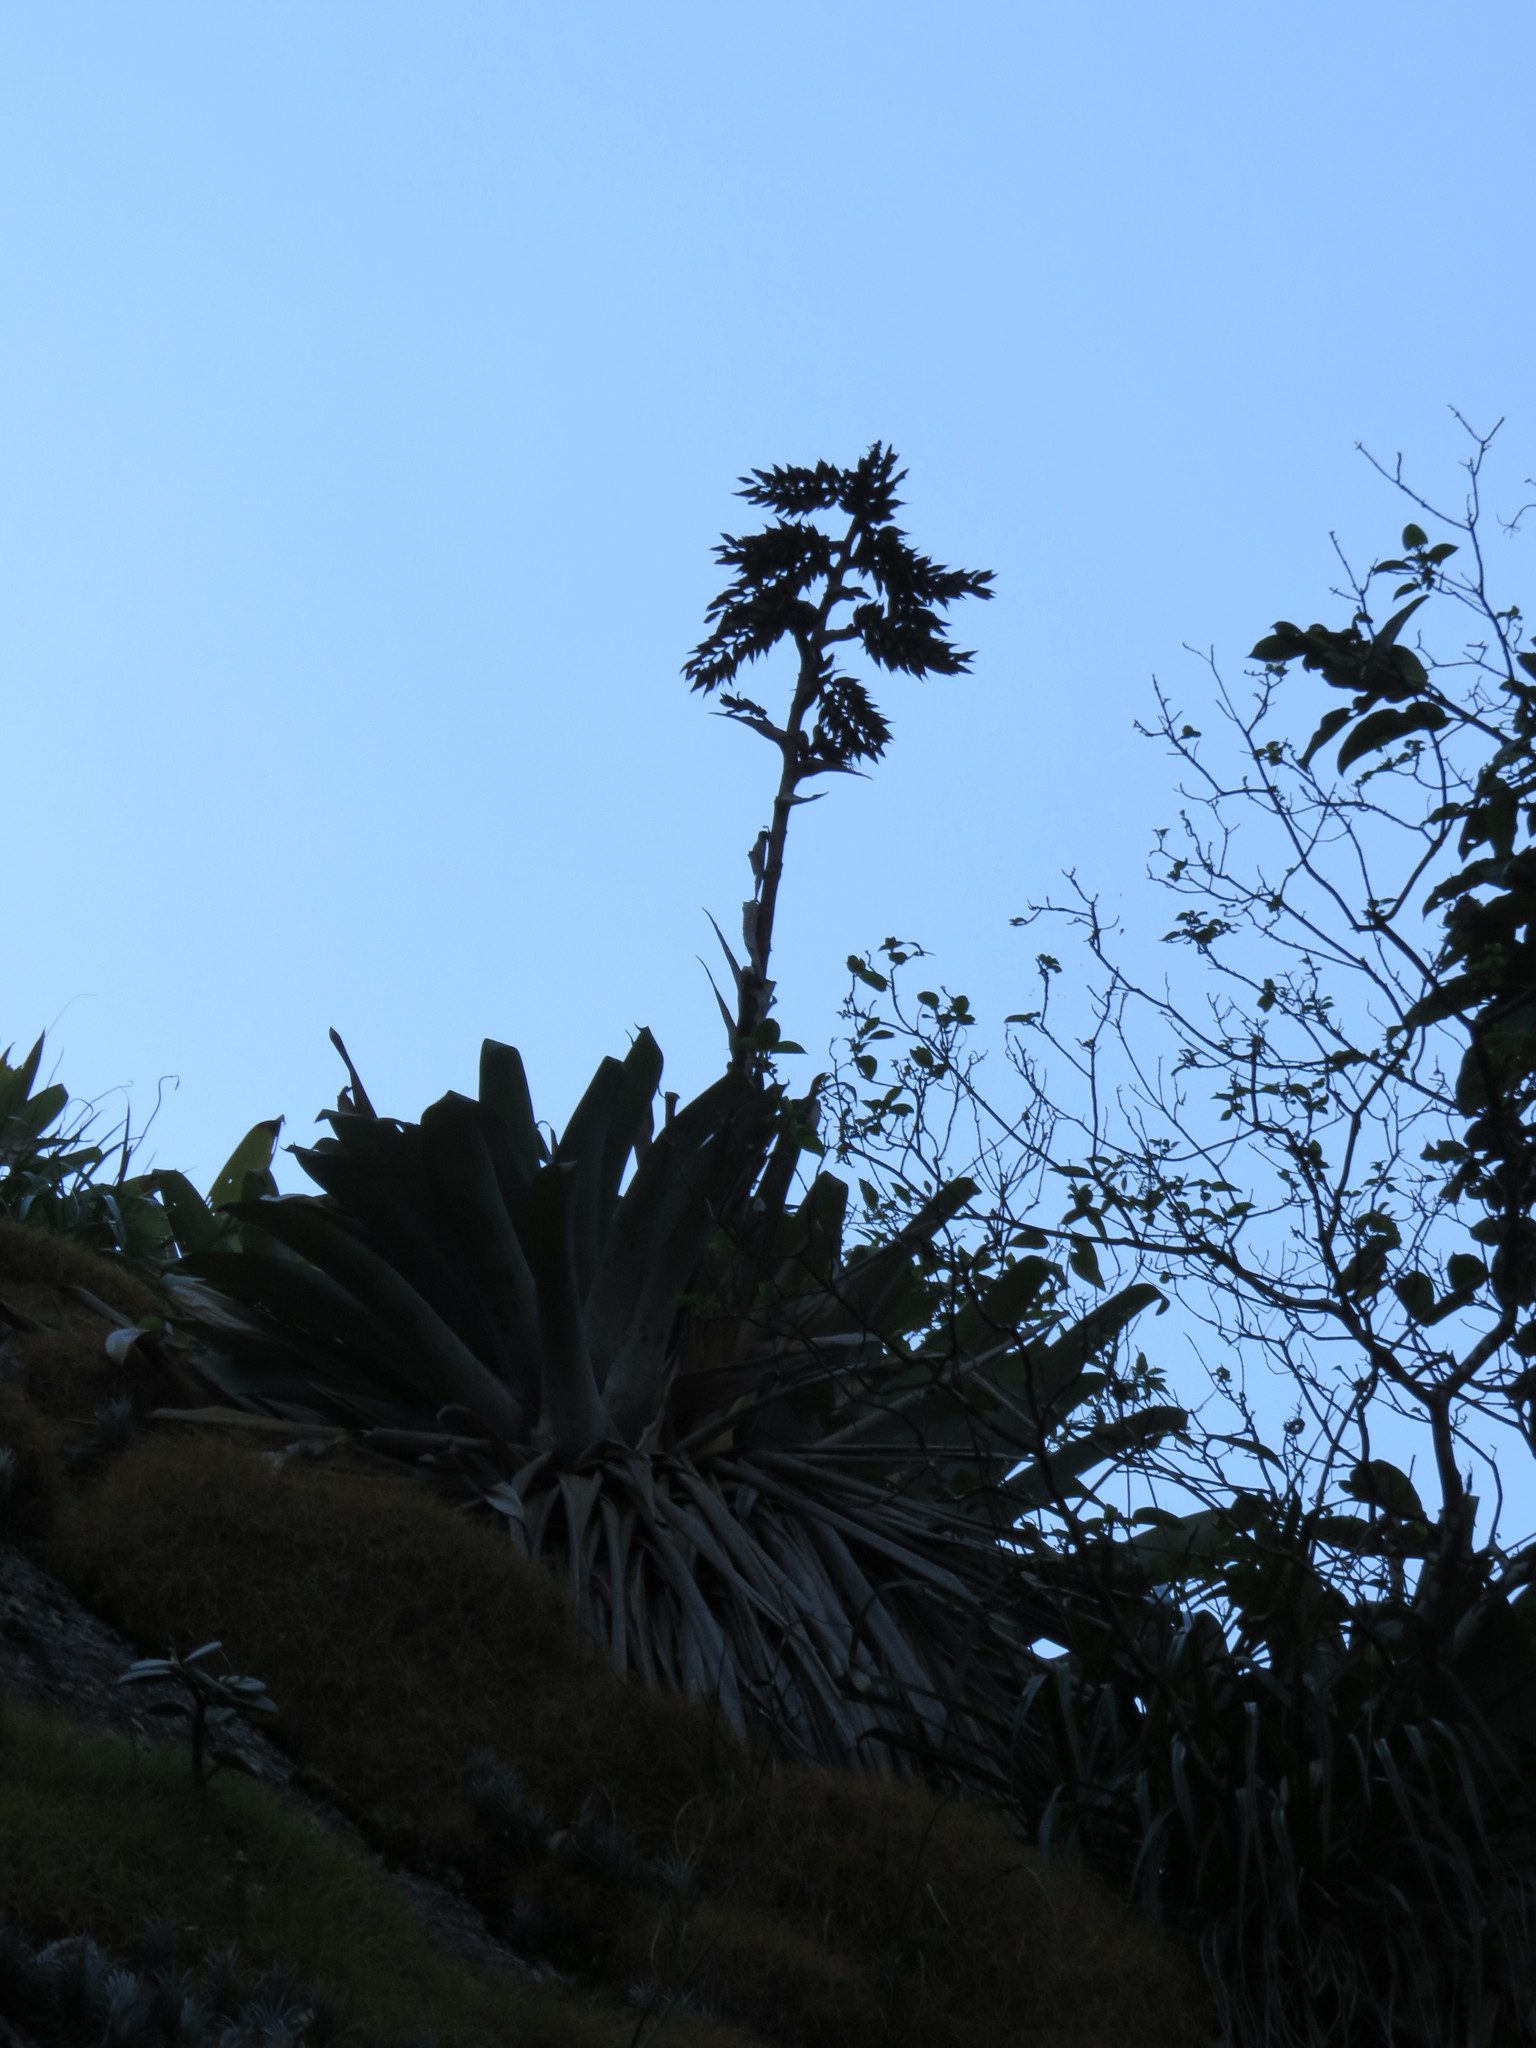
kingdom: Plantae
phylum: Tracheophyta
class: Liliopsida
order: Poales
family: Bromeliaceae
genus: Alcantarea
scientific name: Alcantarea glaziouana
